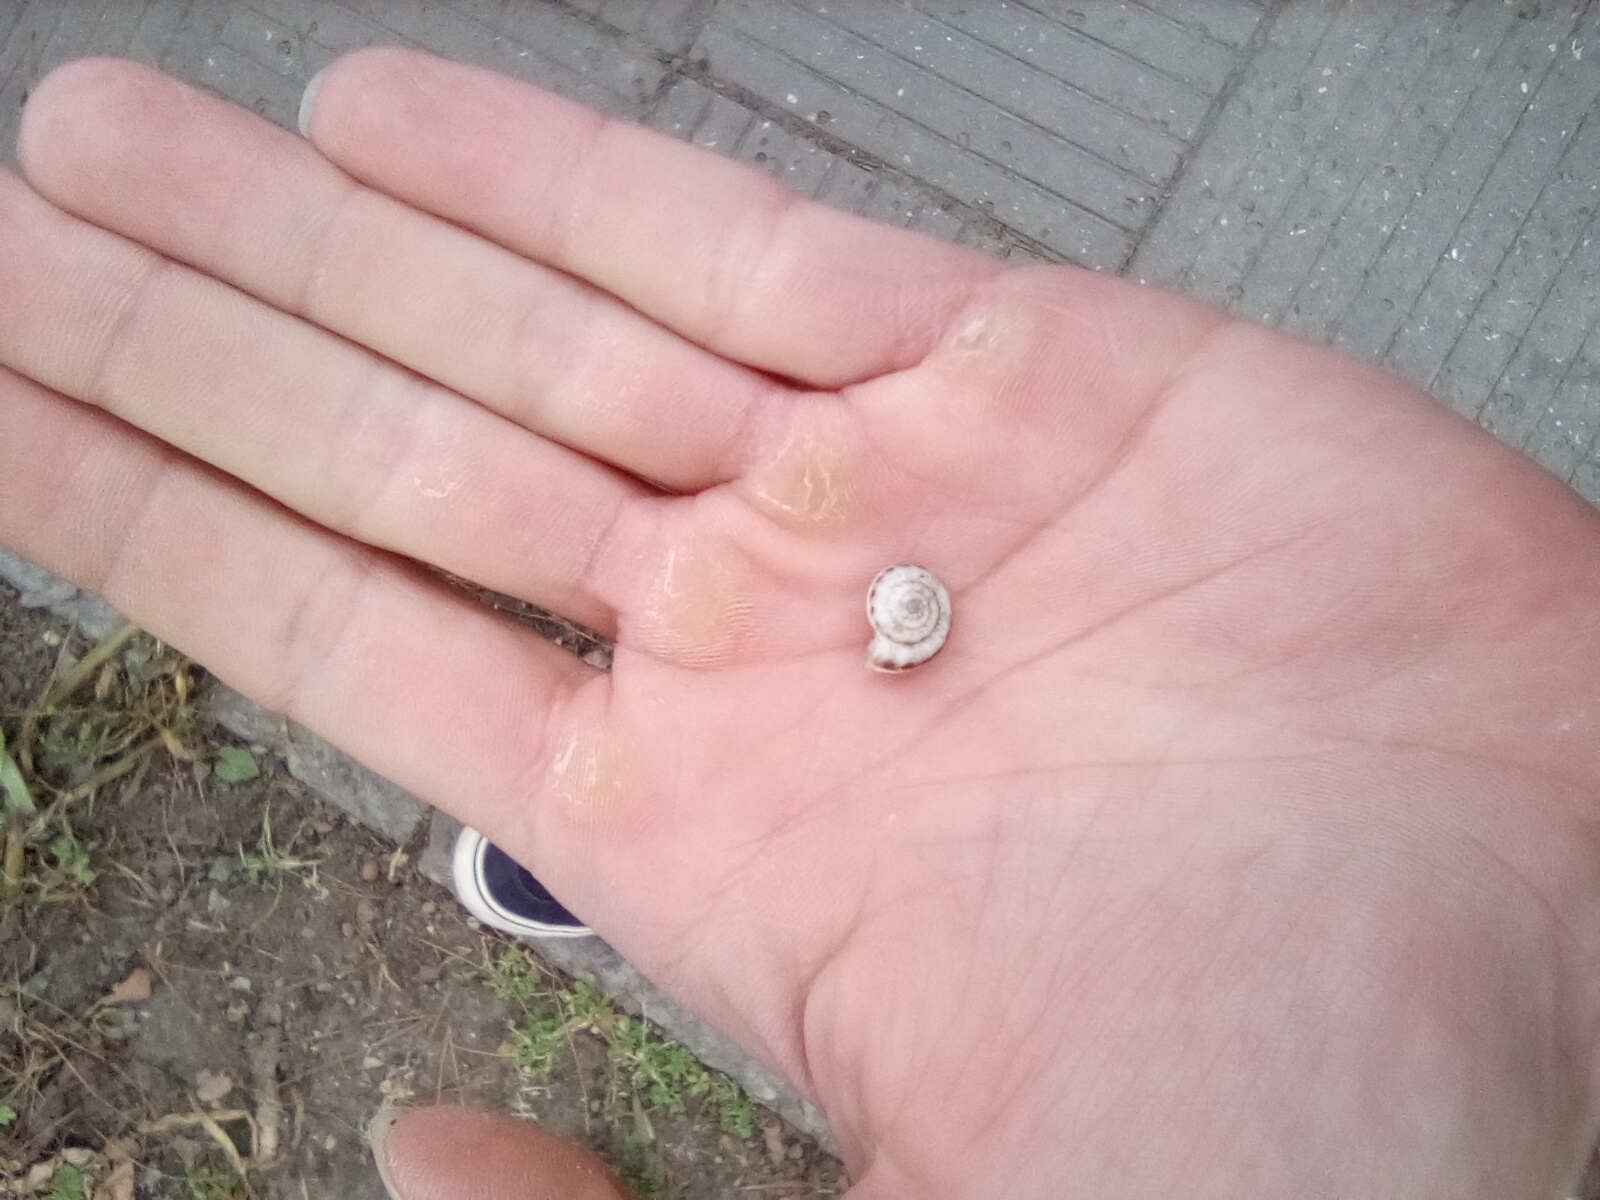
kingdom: Animalia
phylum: Mollusca
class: Gastropoda
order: Stylommatophora
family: Geomitridae
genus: Xeropicta
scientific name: Xeropicta krynickii
